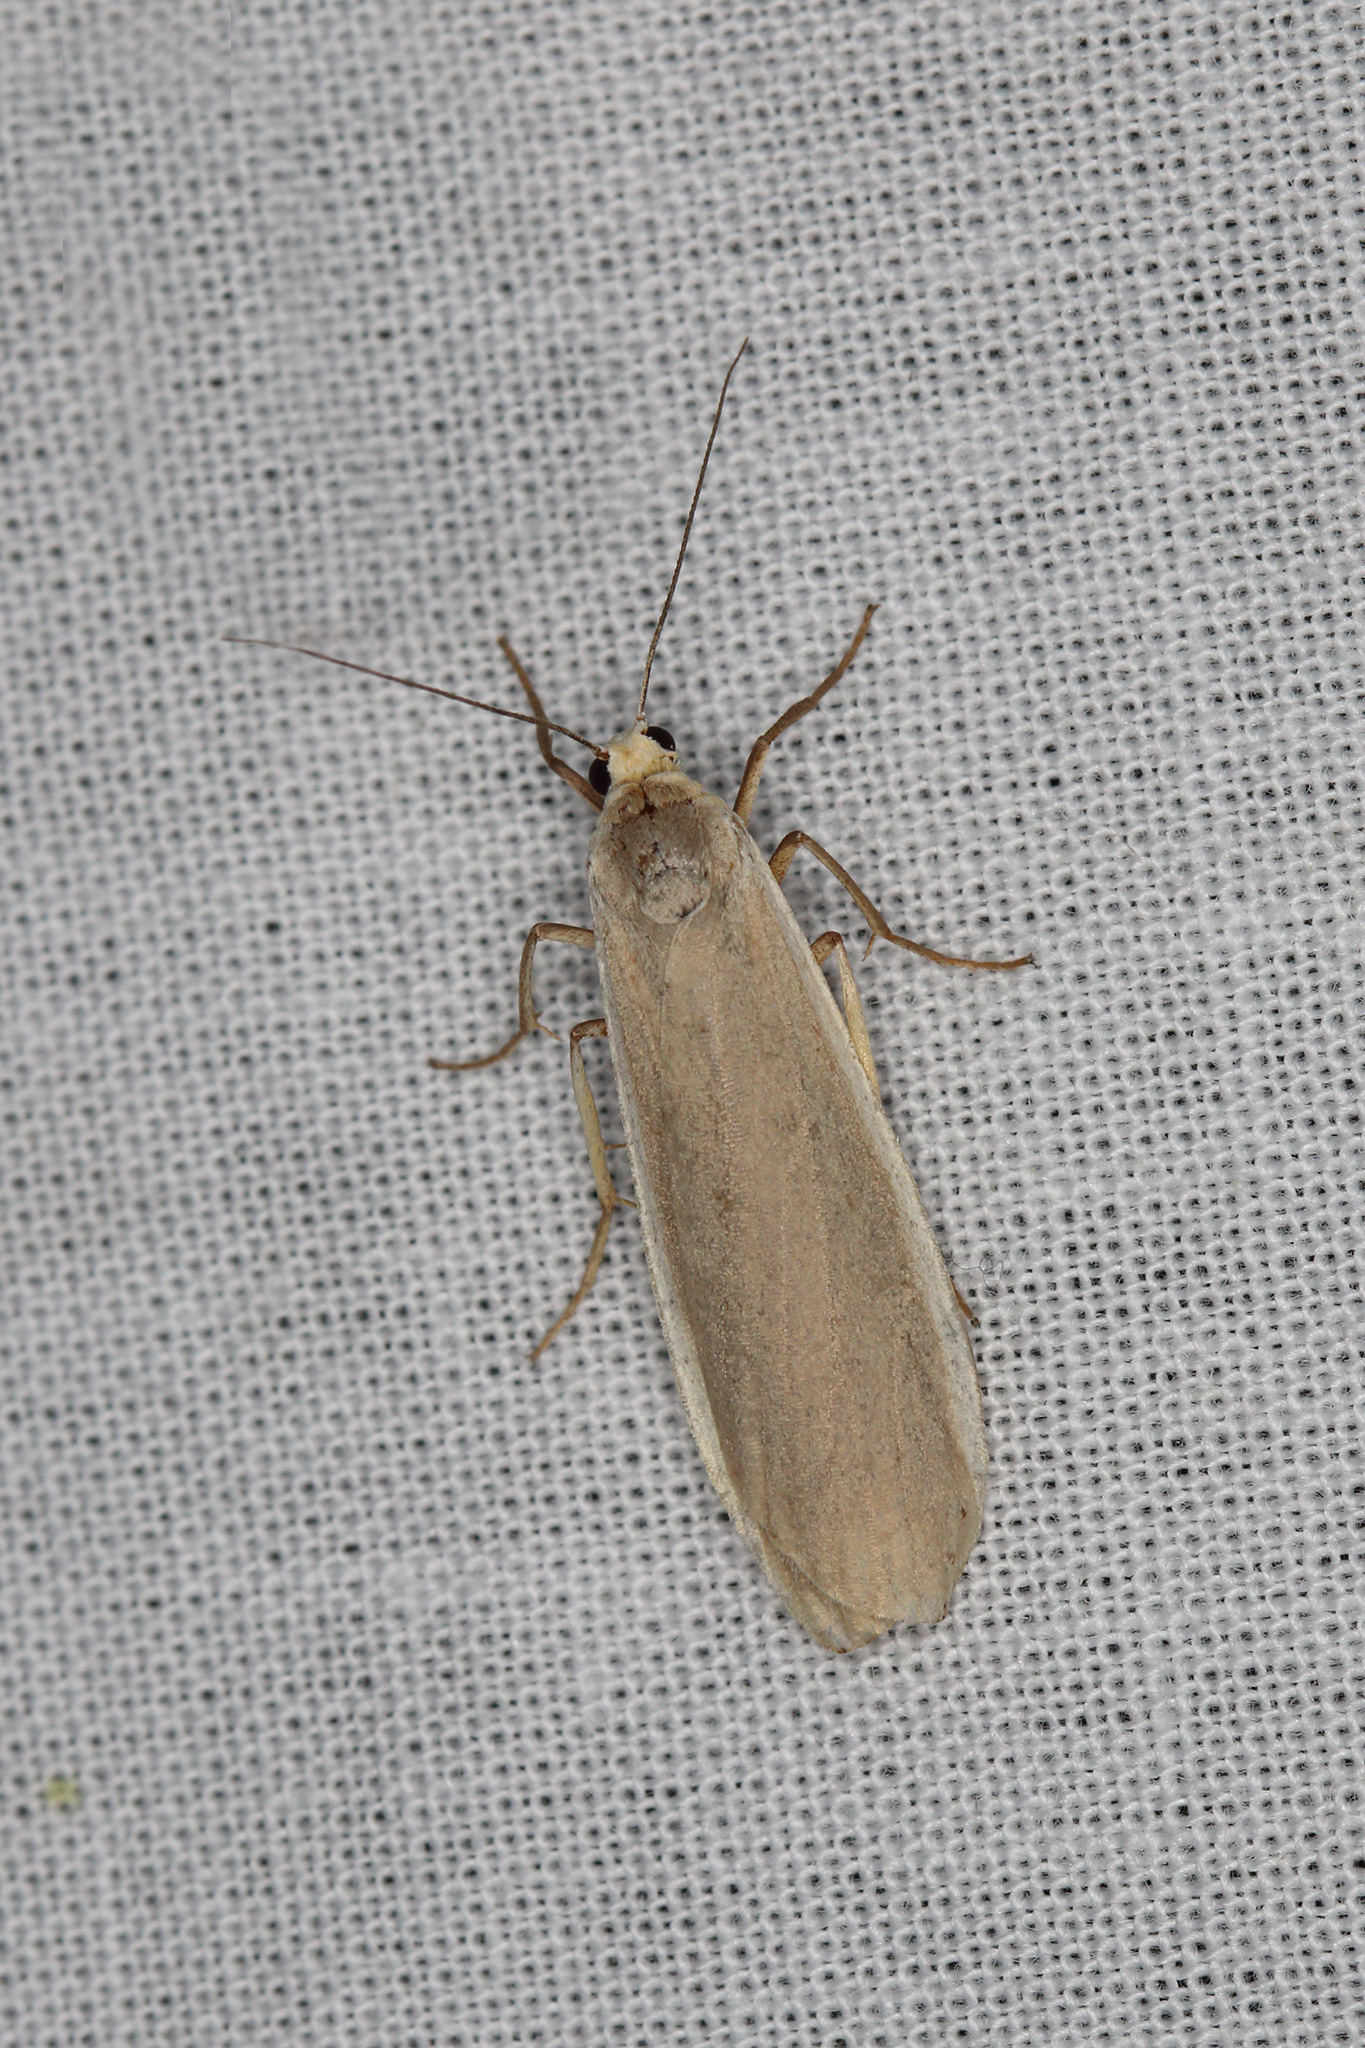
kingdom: Animalia
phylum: Arthropoda
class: Insecta
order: Lepidoptera
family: Erebidae
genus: Nyea
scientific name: Nyea lurideola
